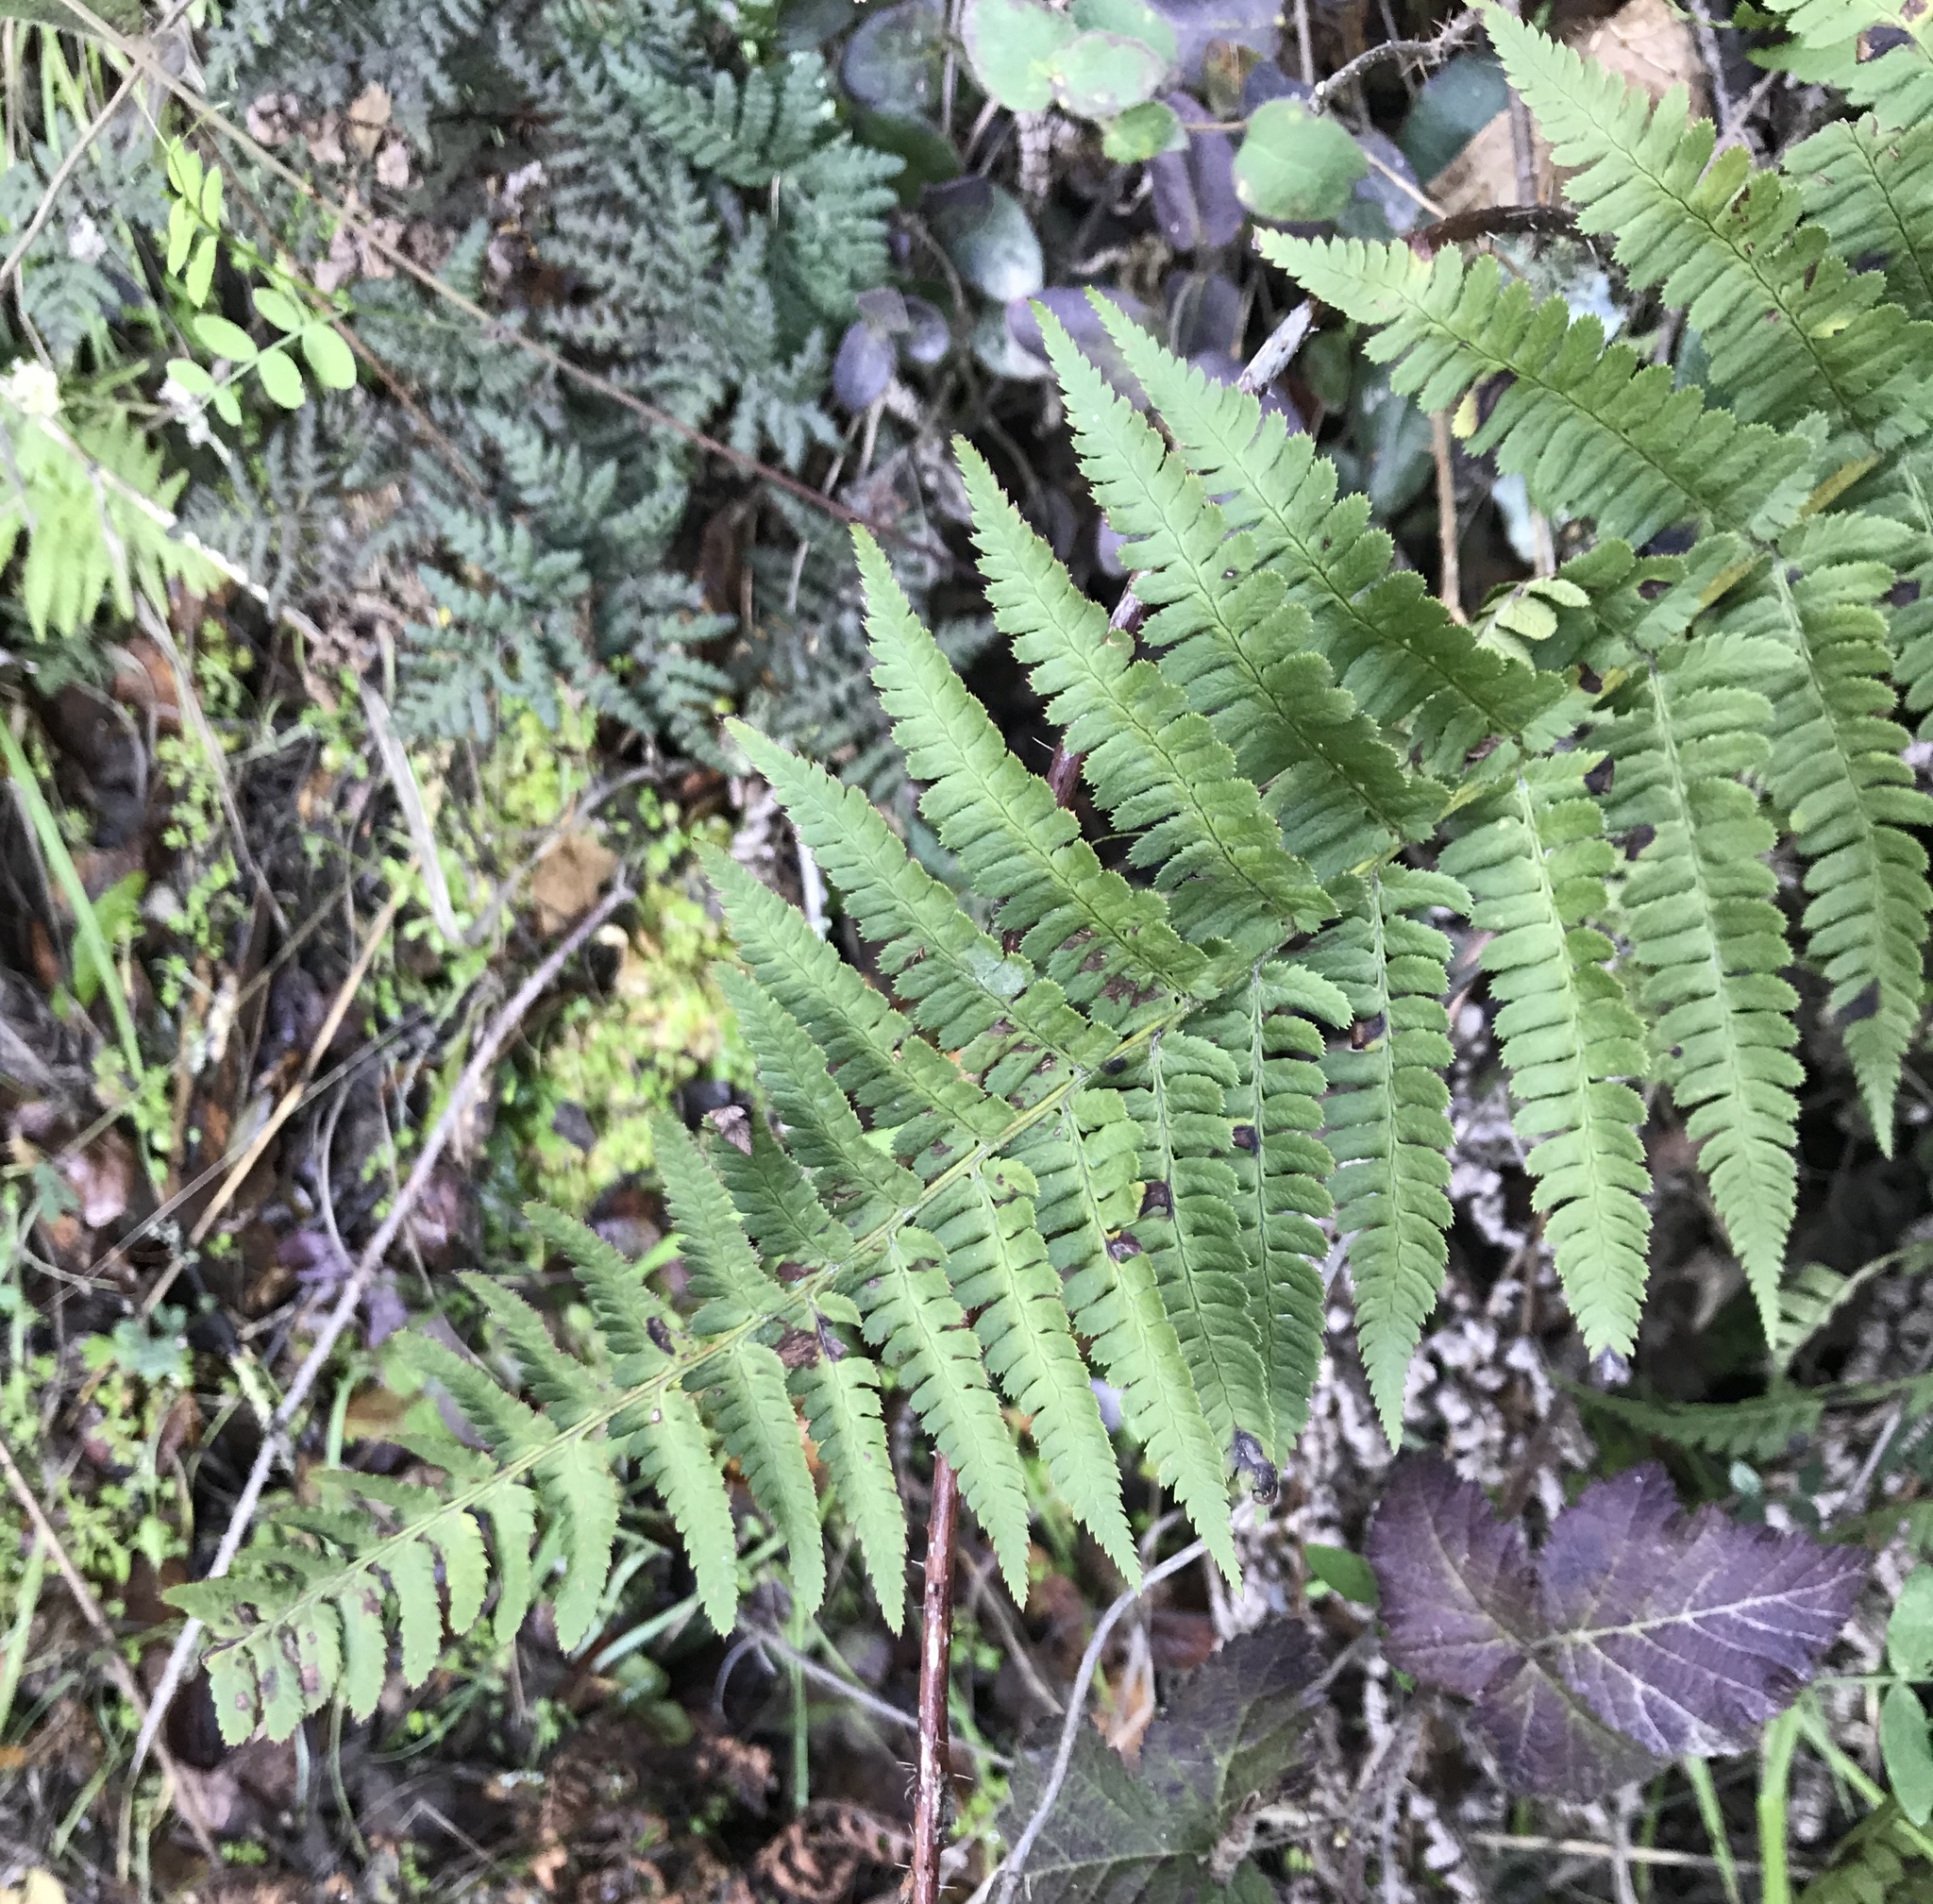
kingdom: Plantae
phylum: Tracheophyta
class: Polypodiopsida
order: Polypodiales
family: Dryopteridaceae
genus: Dryopteris
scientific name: Dryopteris arguta
